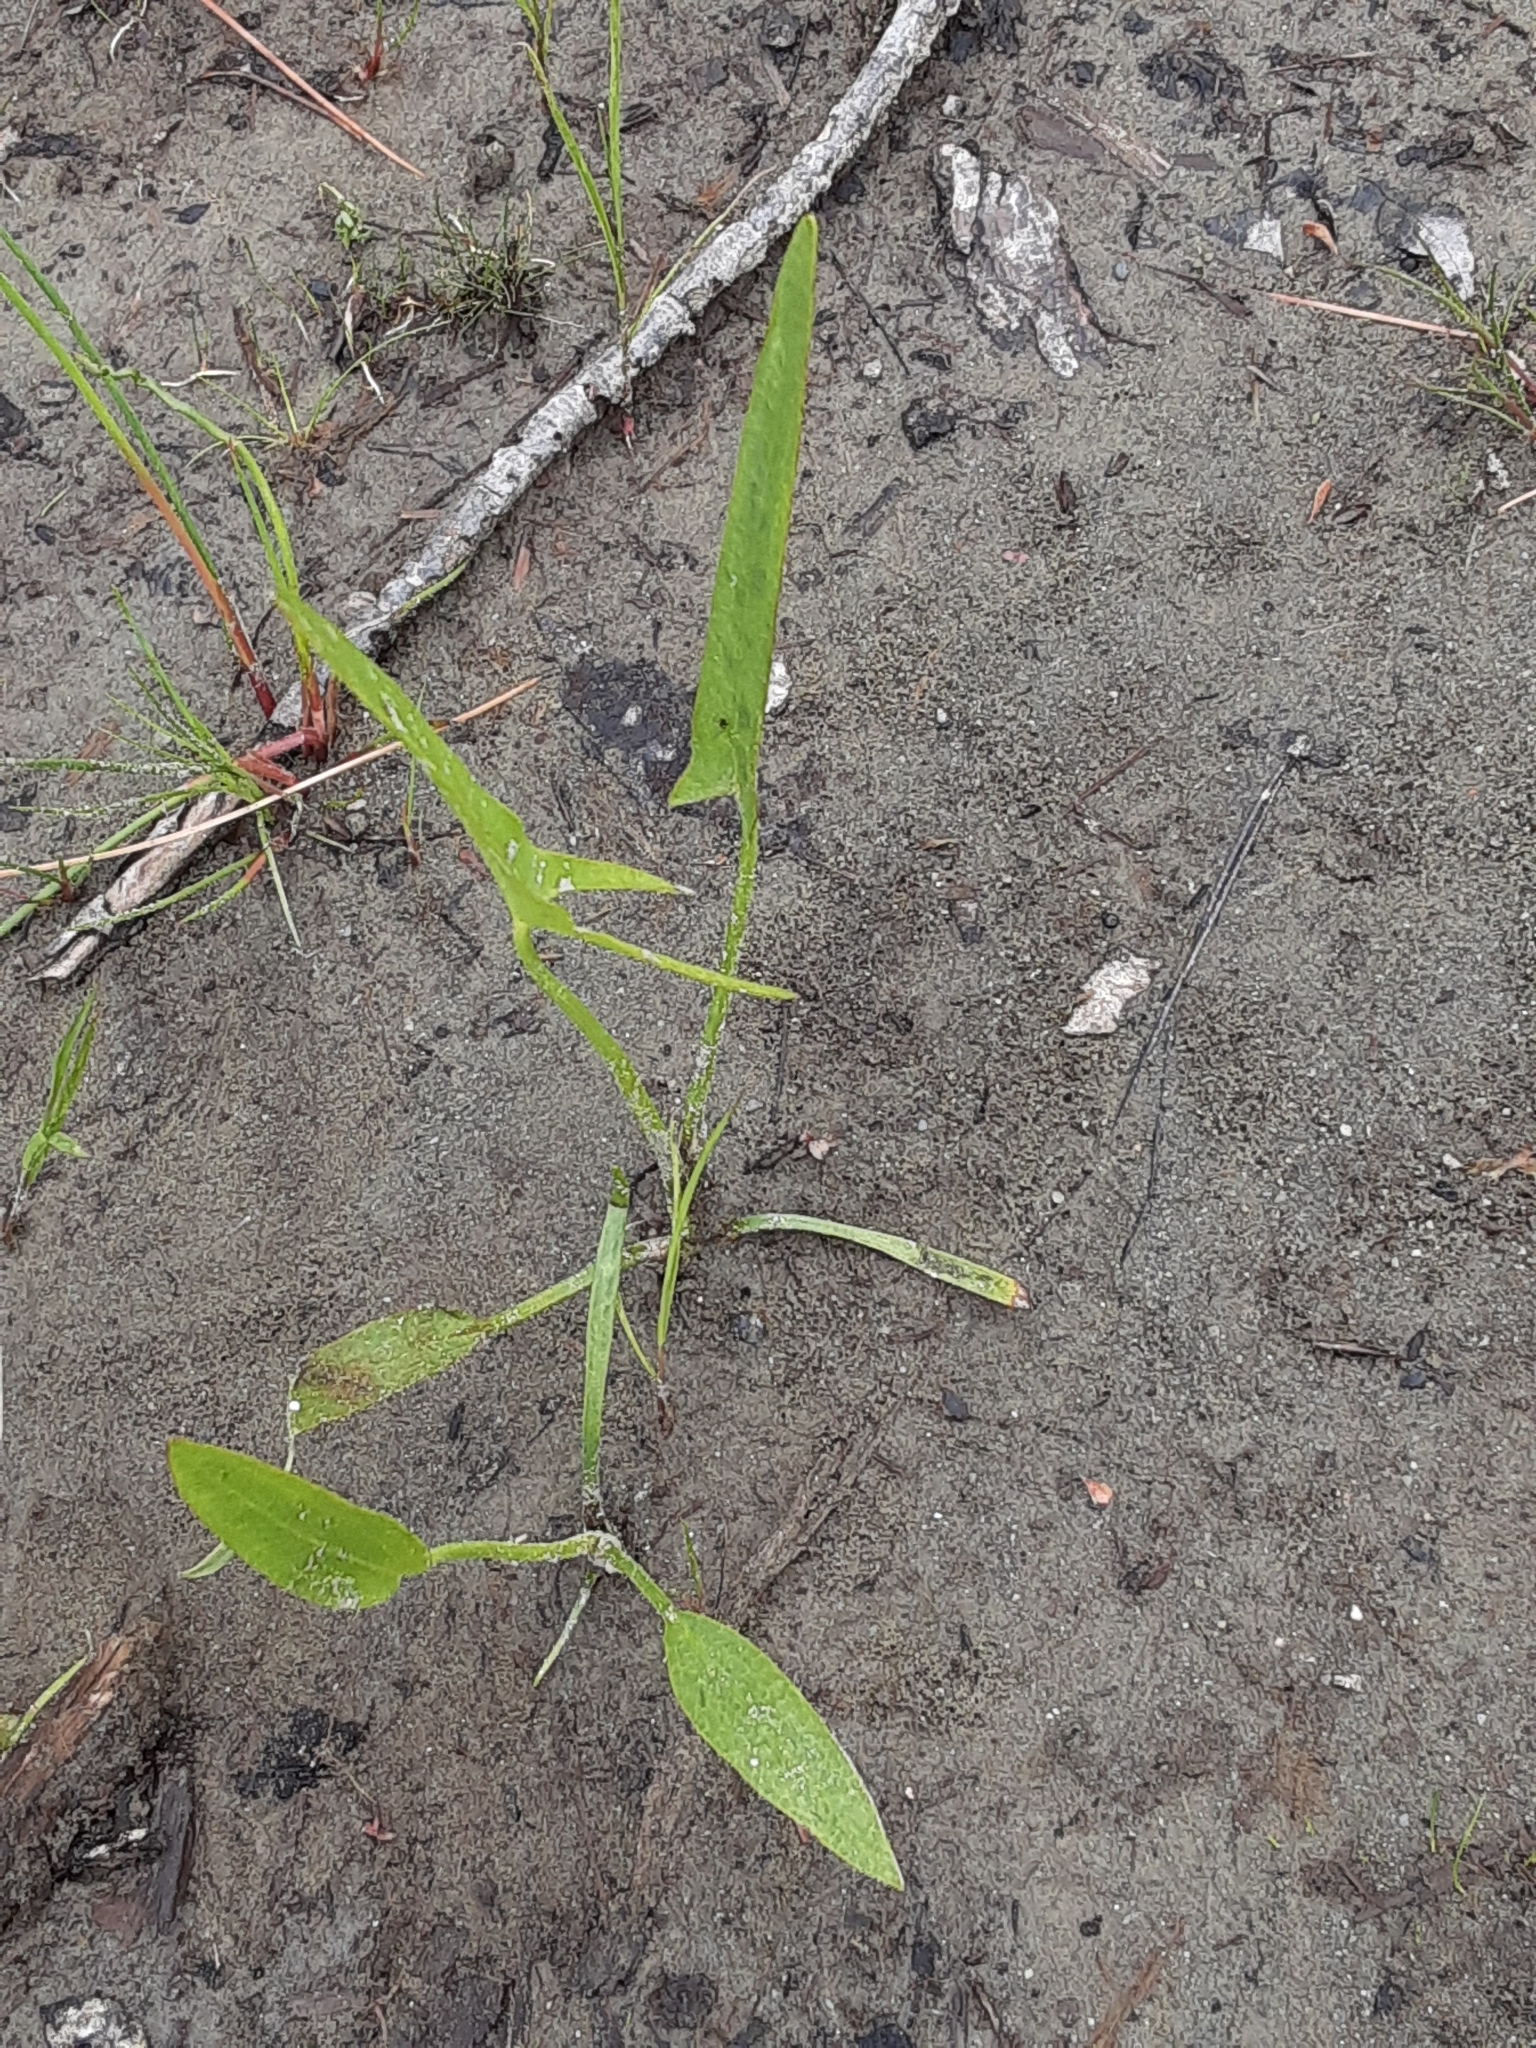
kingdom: Plantae
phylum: Tracheophyta
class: Liliopsida
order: Alismatales
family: Alismataceae
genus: Sagittaria
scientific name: Sagittaria latifolia
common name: Duck-potato
